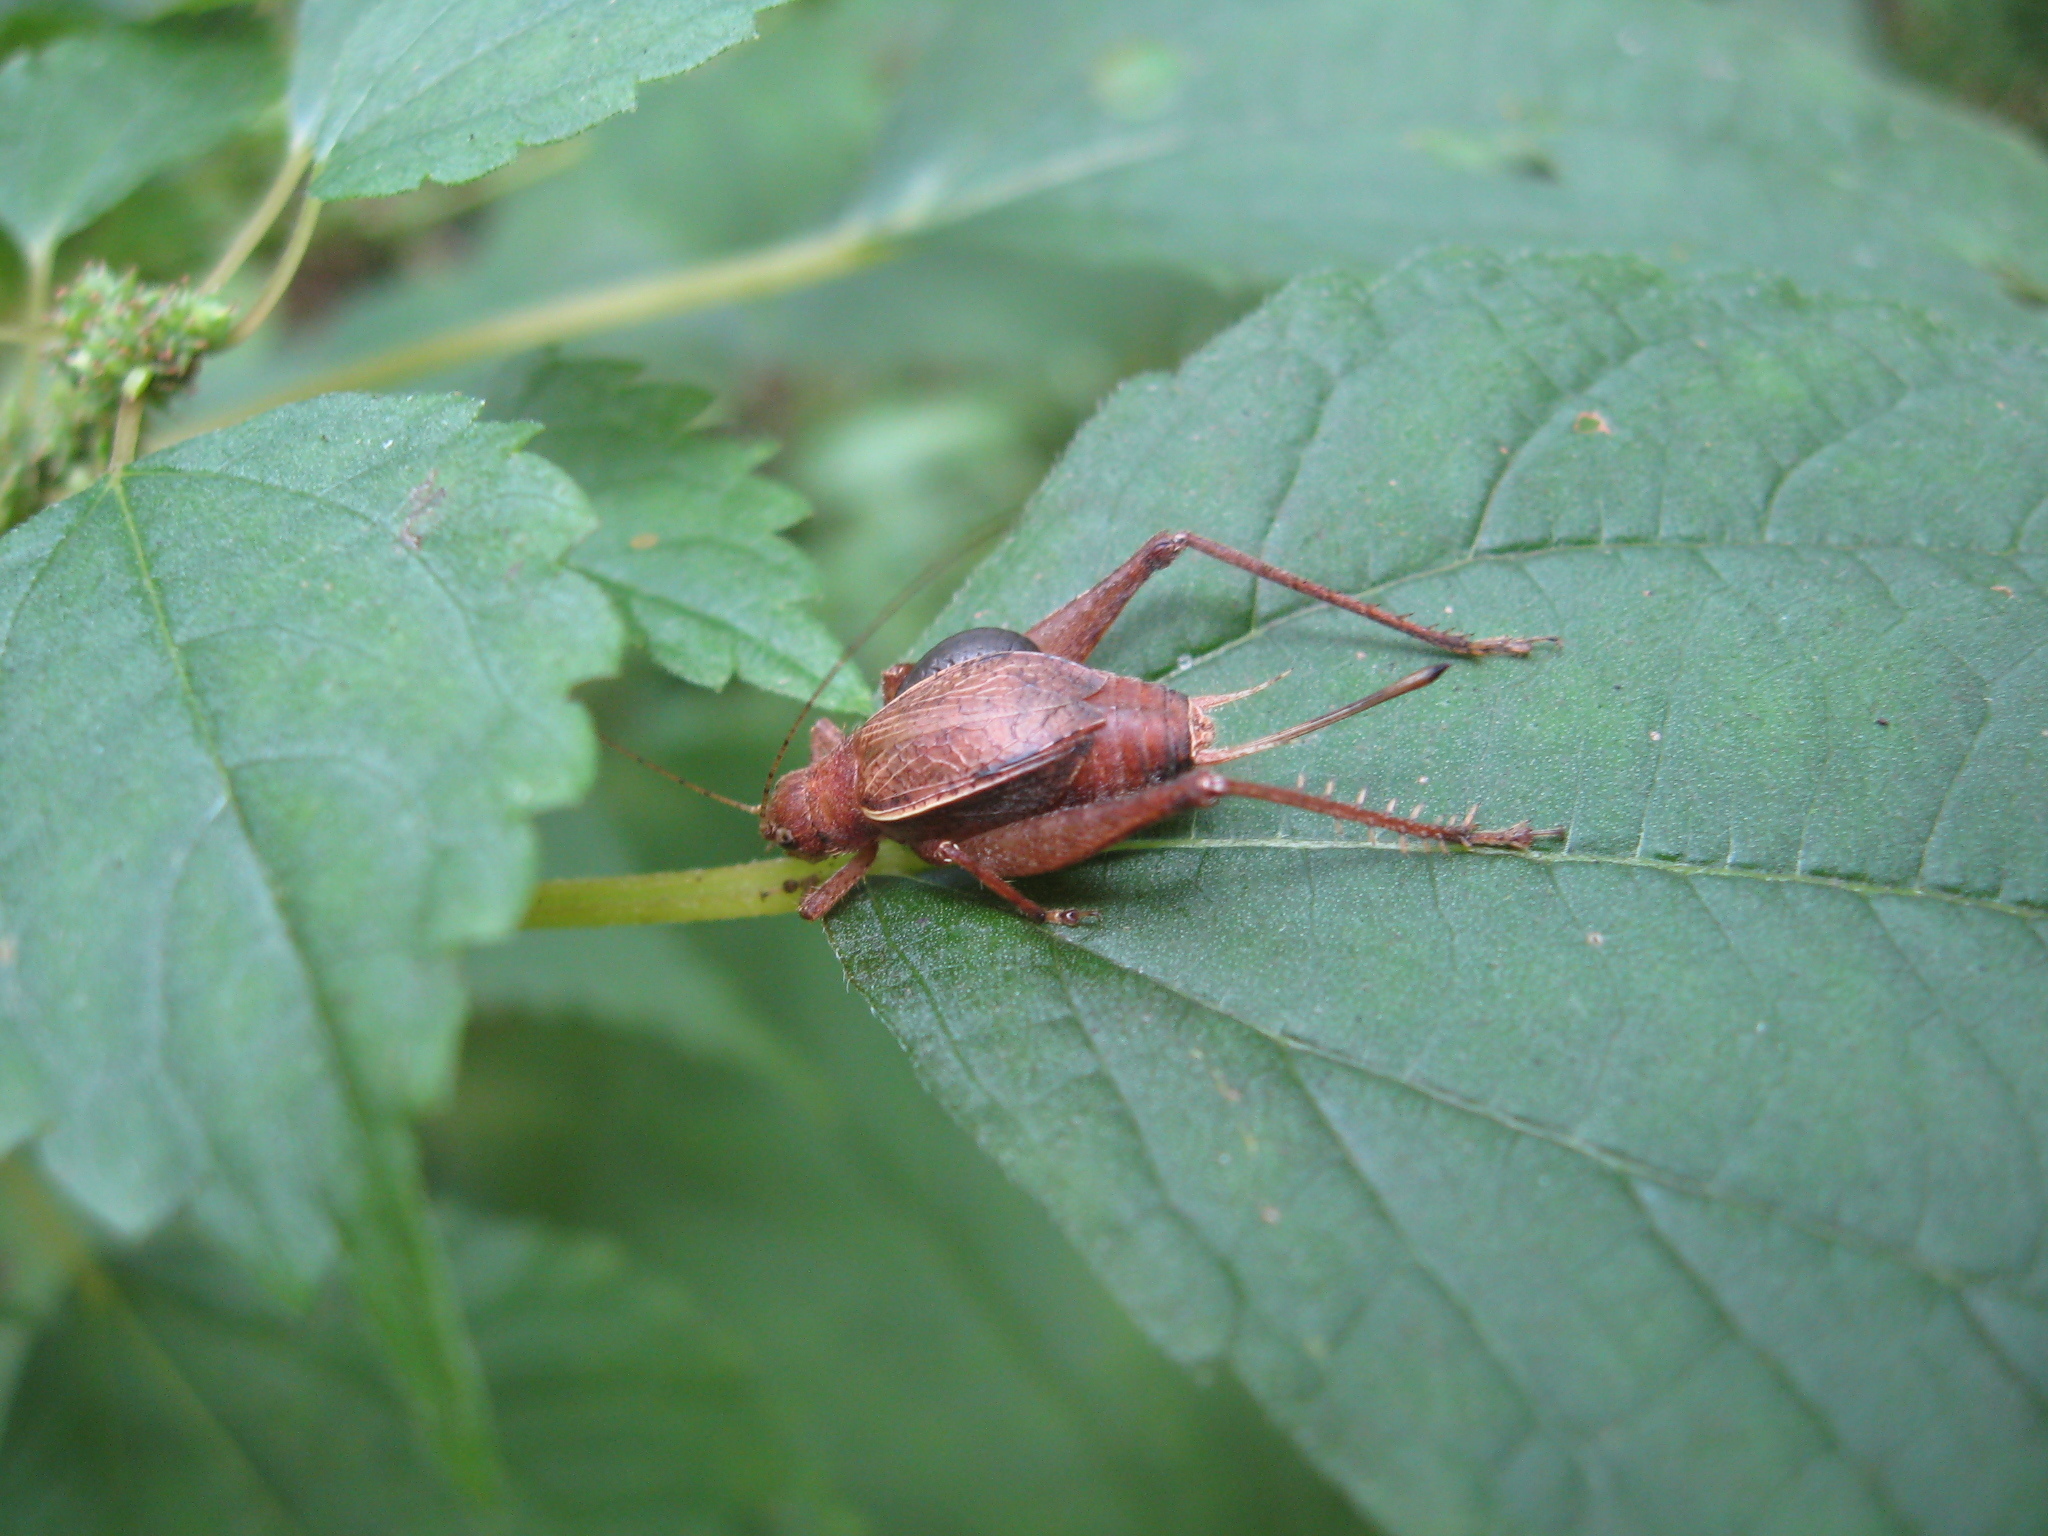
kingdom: Animalia
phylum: Arthropoda
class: Insecta
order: Orthoptera
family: Gryllidae
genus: Hapithus
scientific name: Hapithus agitator
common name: Restless bush cricket
